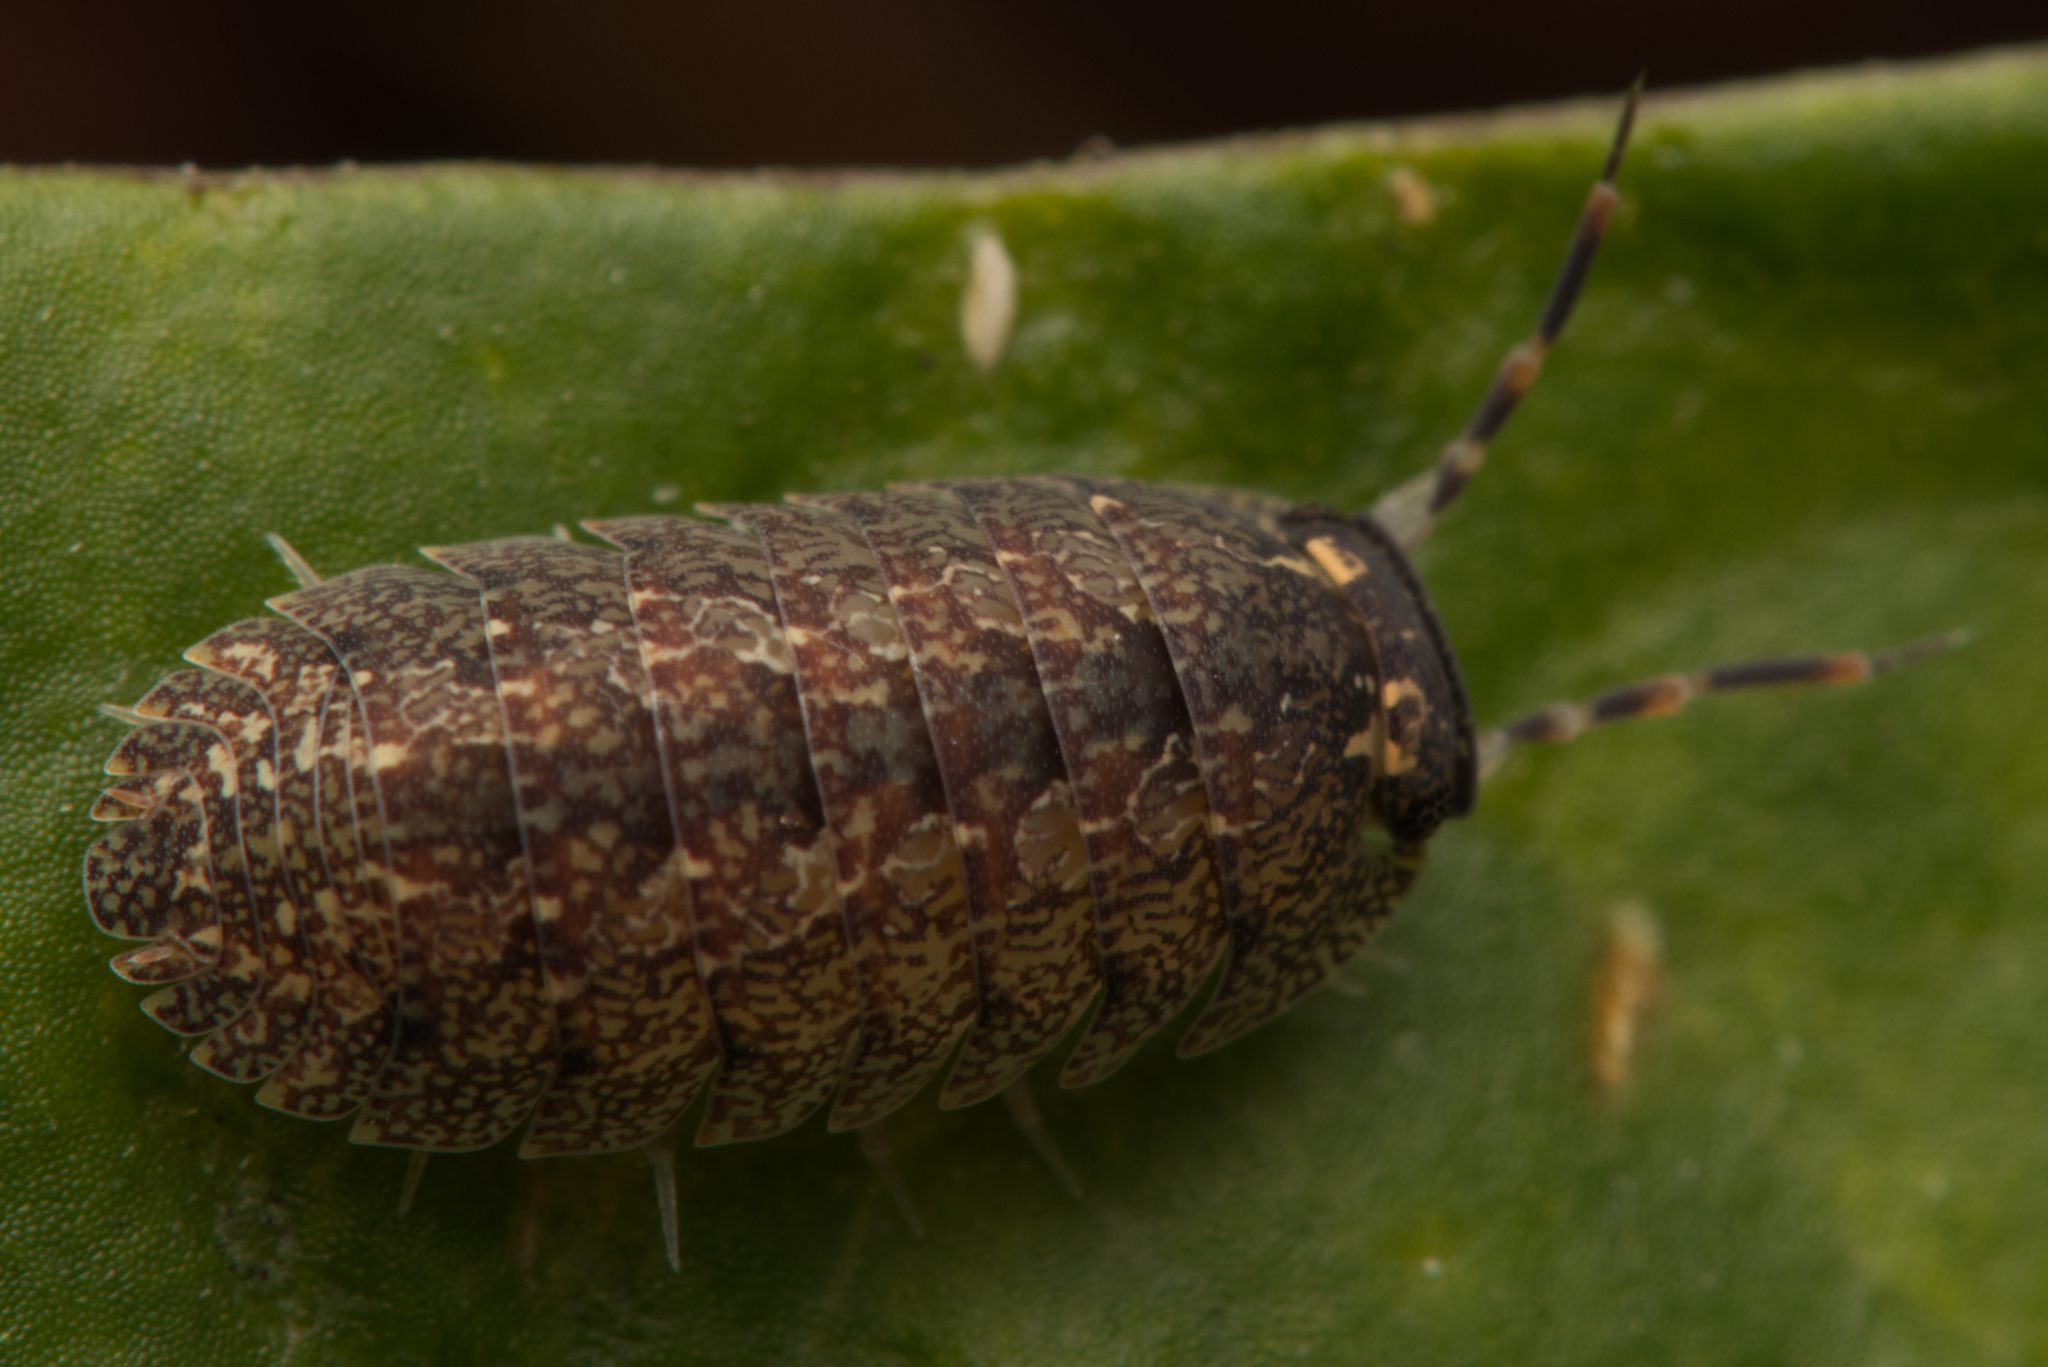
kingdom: Animalia
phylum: Arthropoda
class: Malacostraca
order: Isopoda
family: Armadillidae
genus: Cubaris
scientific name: Cubaris marmorata
